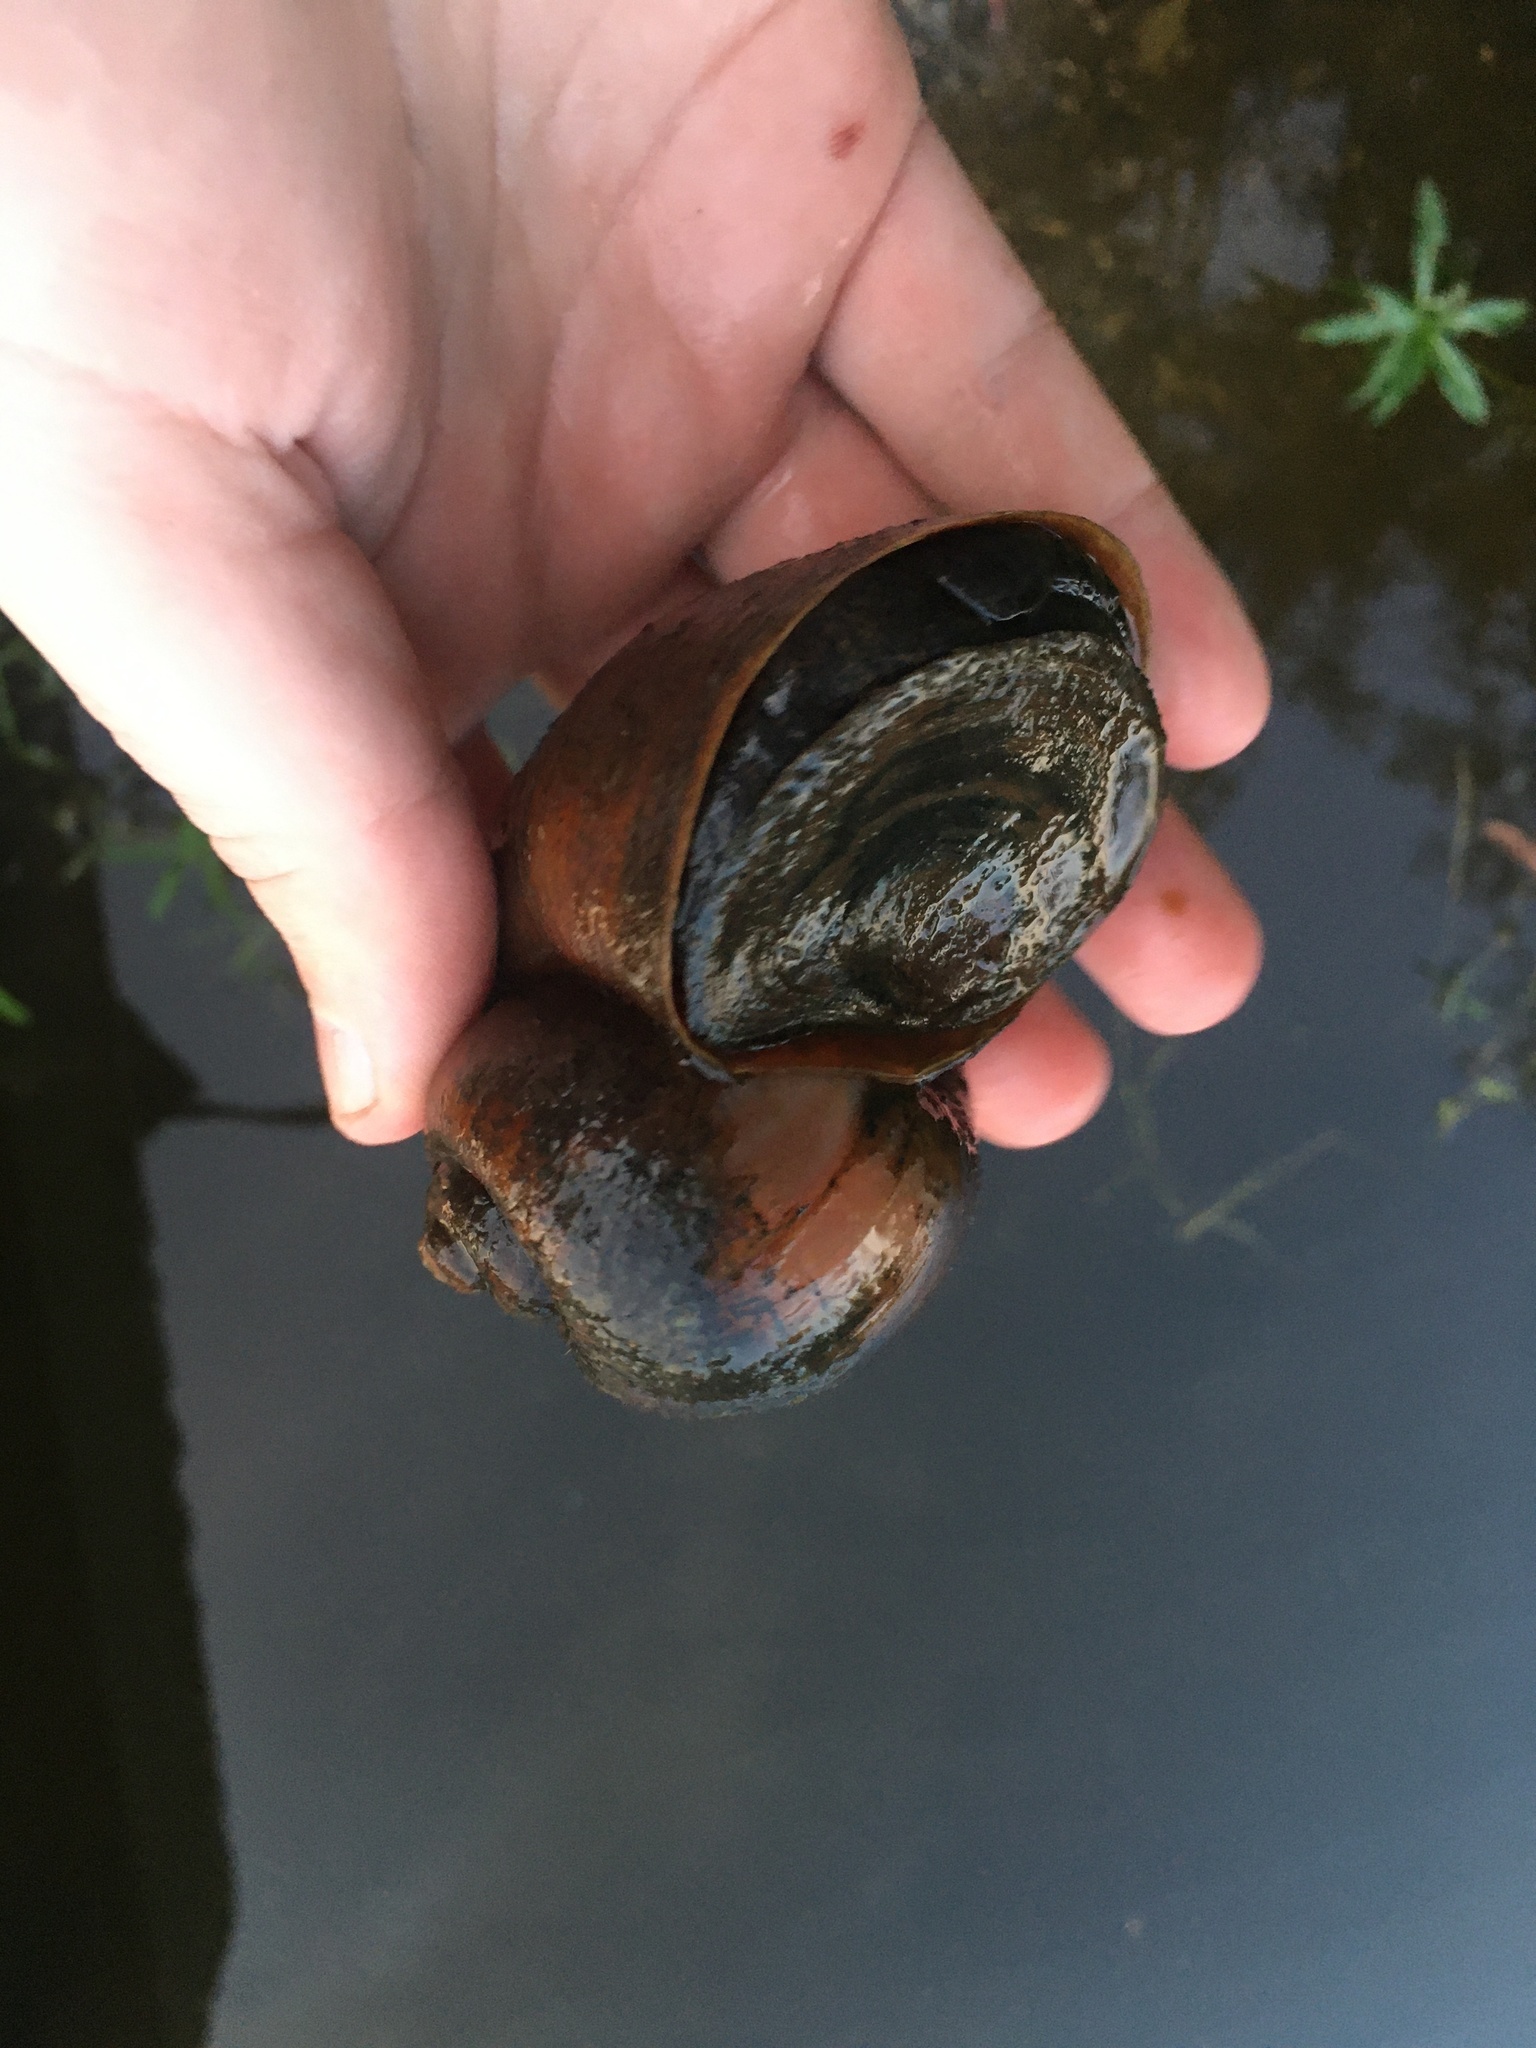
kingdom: Animalia
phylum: Mollusca
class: Gastropoda
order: Architaenioglossa
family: Ampullariidae
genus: Pomacea
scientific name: Pomacea maculata
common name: Giant applesnail
